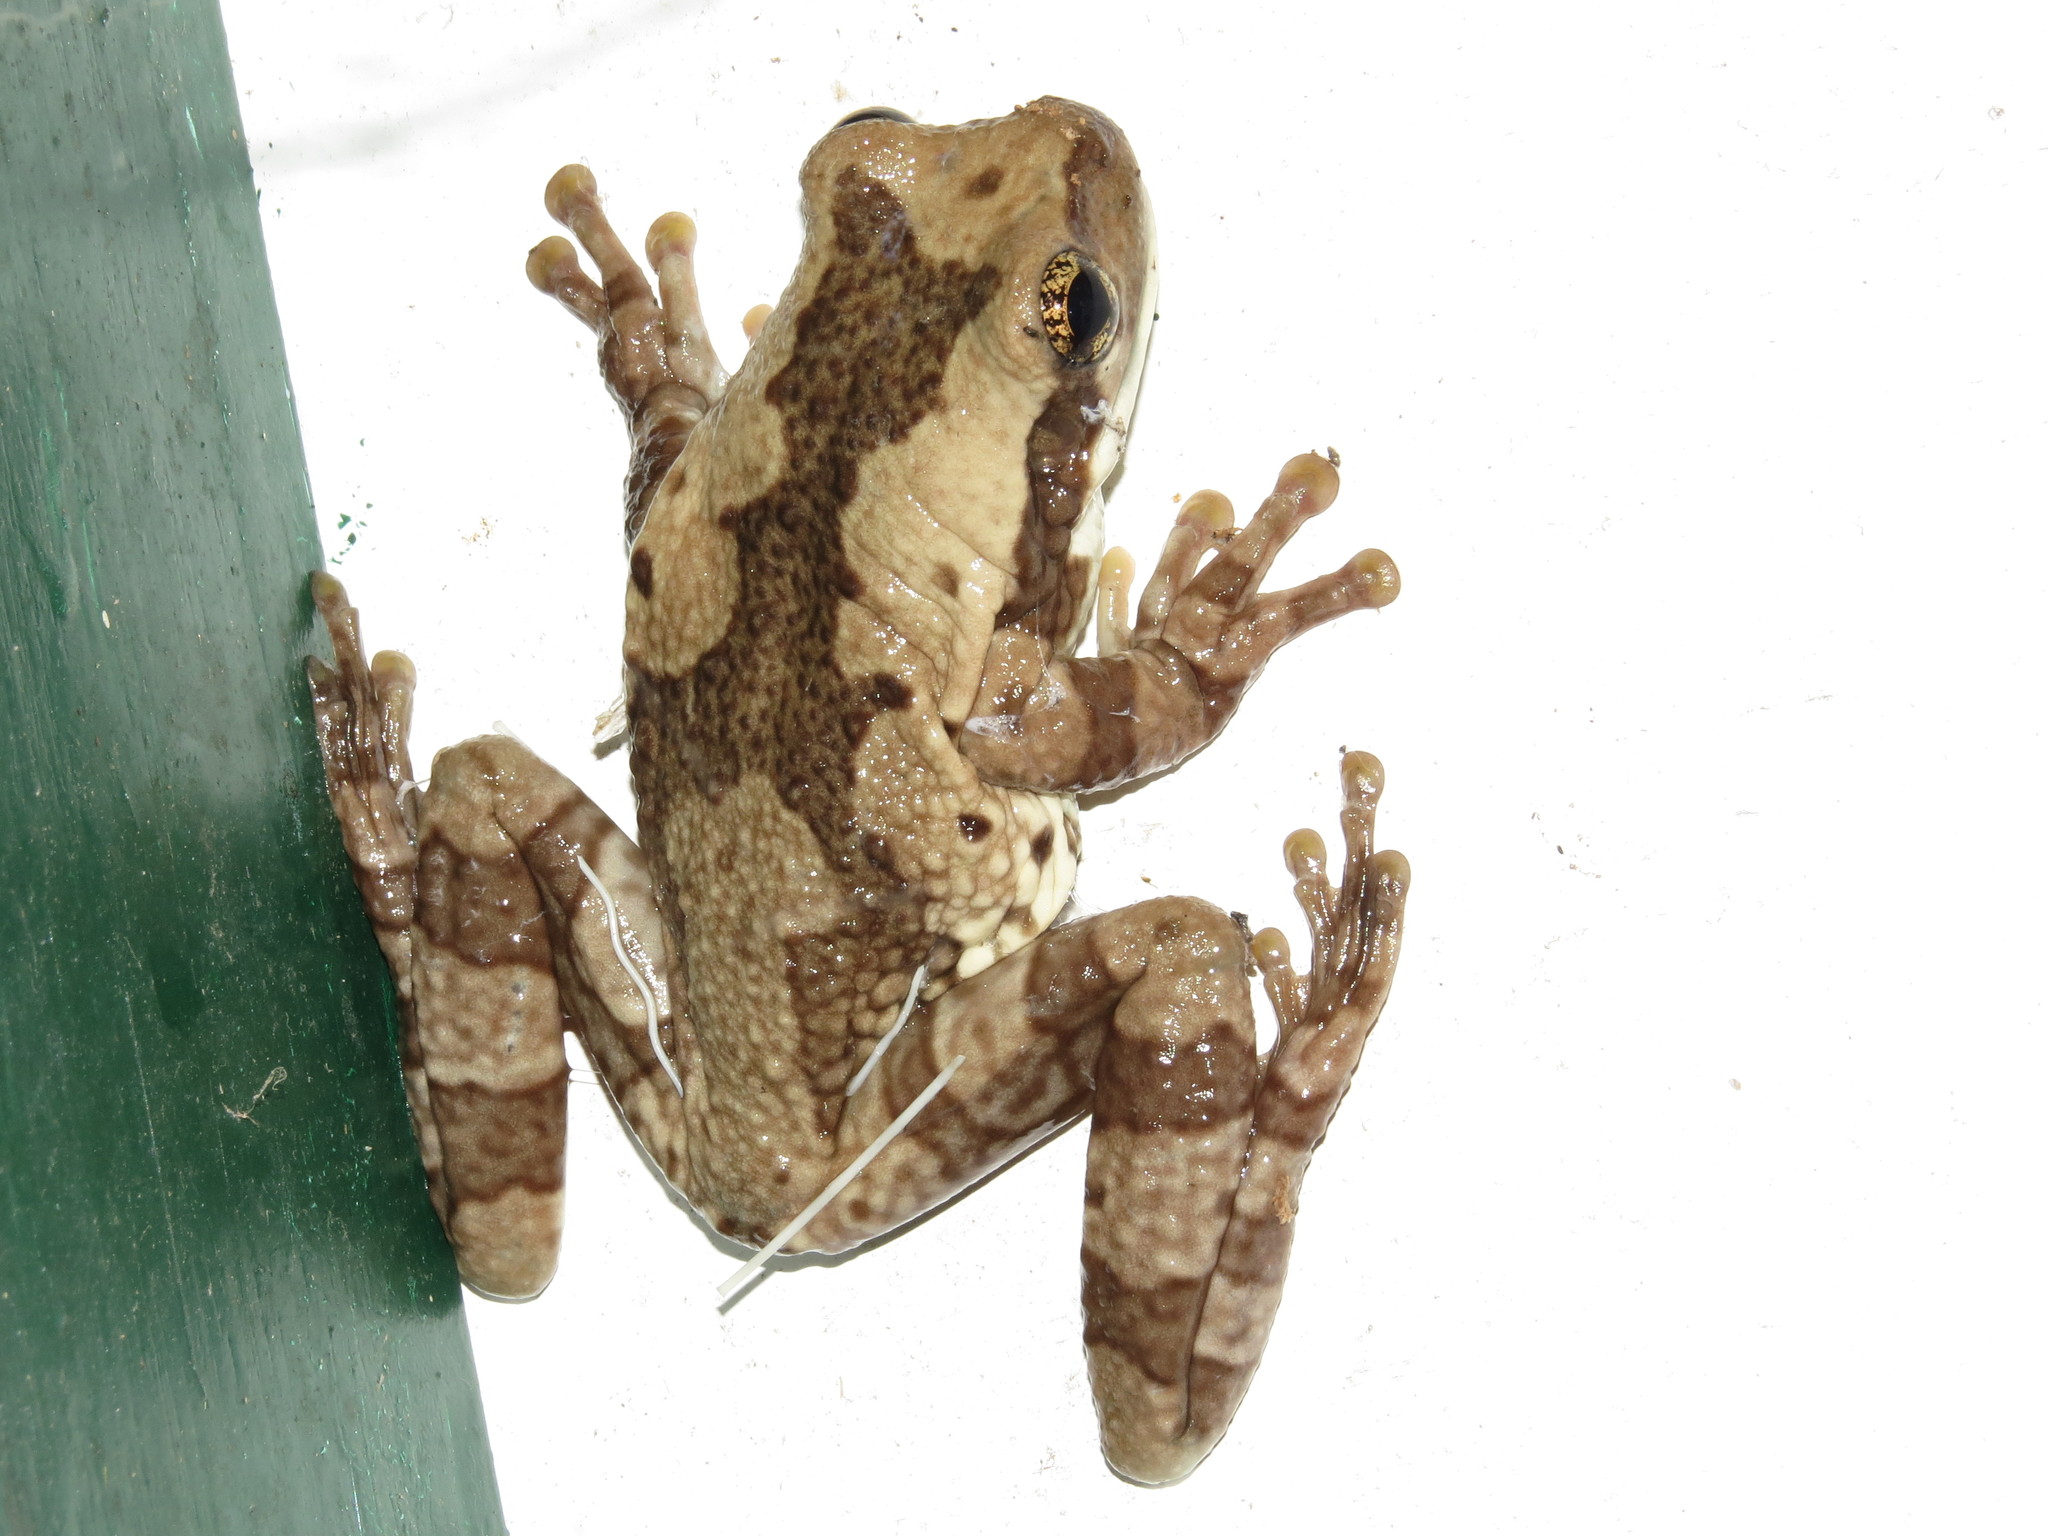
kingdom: Animalia
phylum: Chordata
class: Amphibia
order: Anura
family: Hylidae
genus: Trachycephalus
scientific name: Trachycephalus typhonius
